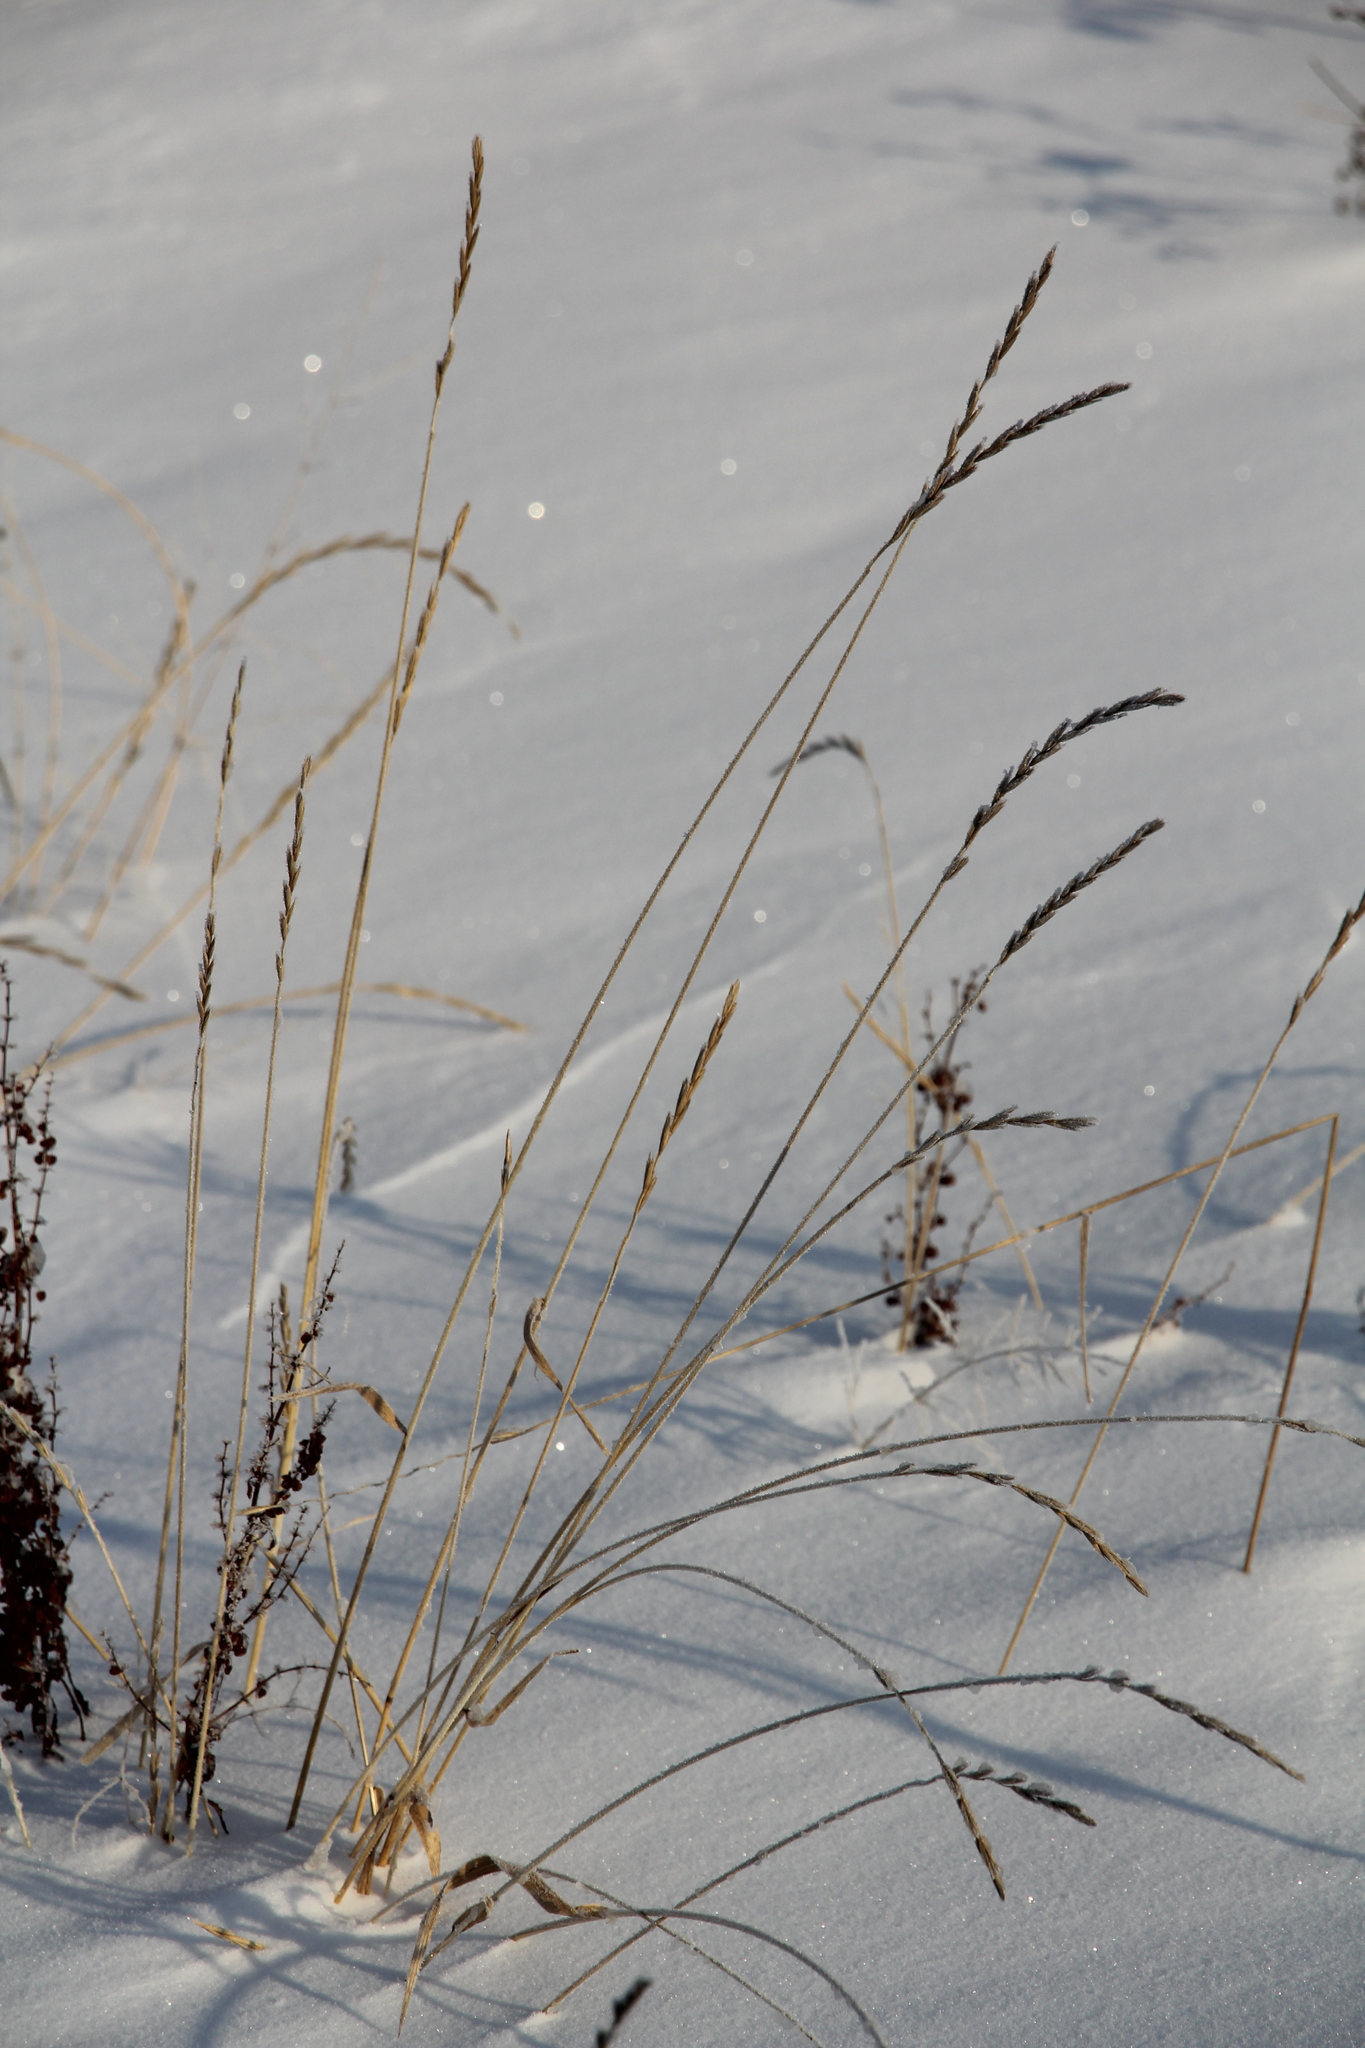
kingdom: Plantae
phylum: Tracheophyta
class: Liliopsida
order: Poales
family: Poaceae
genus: Elymus
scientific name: Elymus repens
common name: Quackgrass
